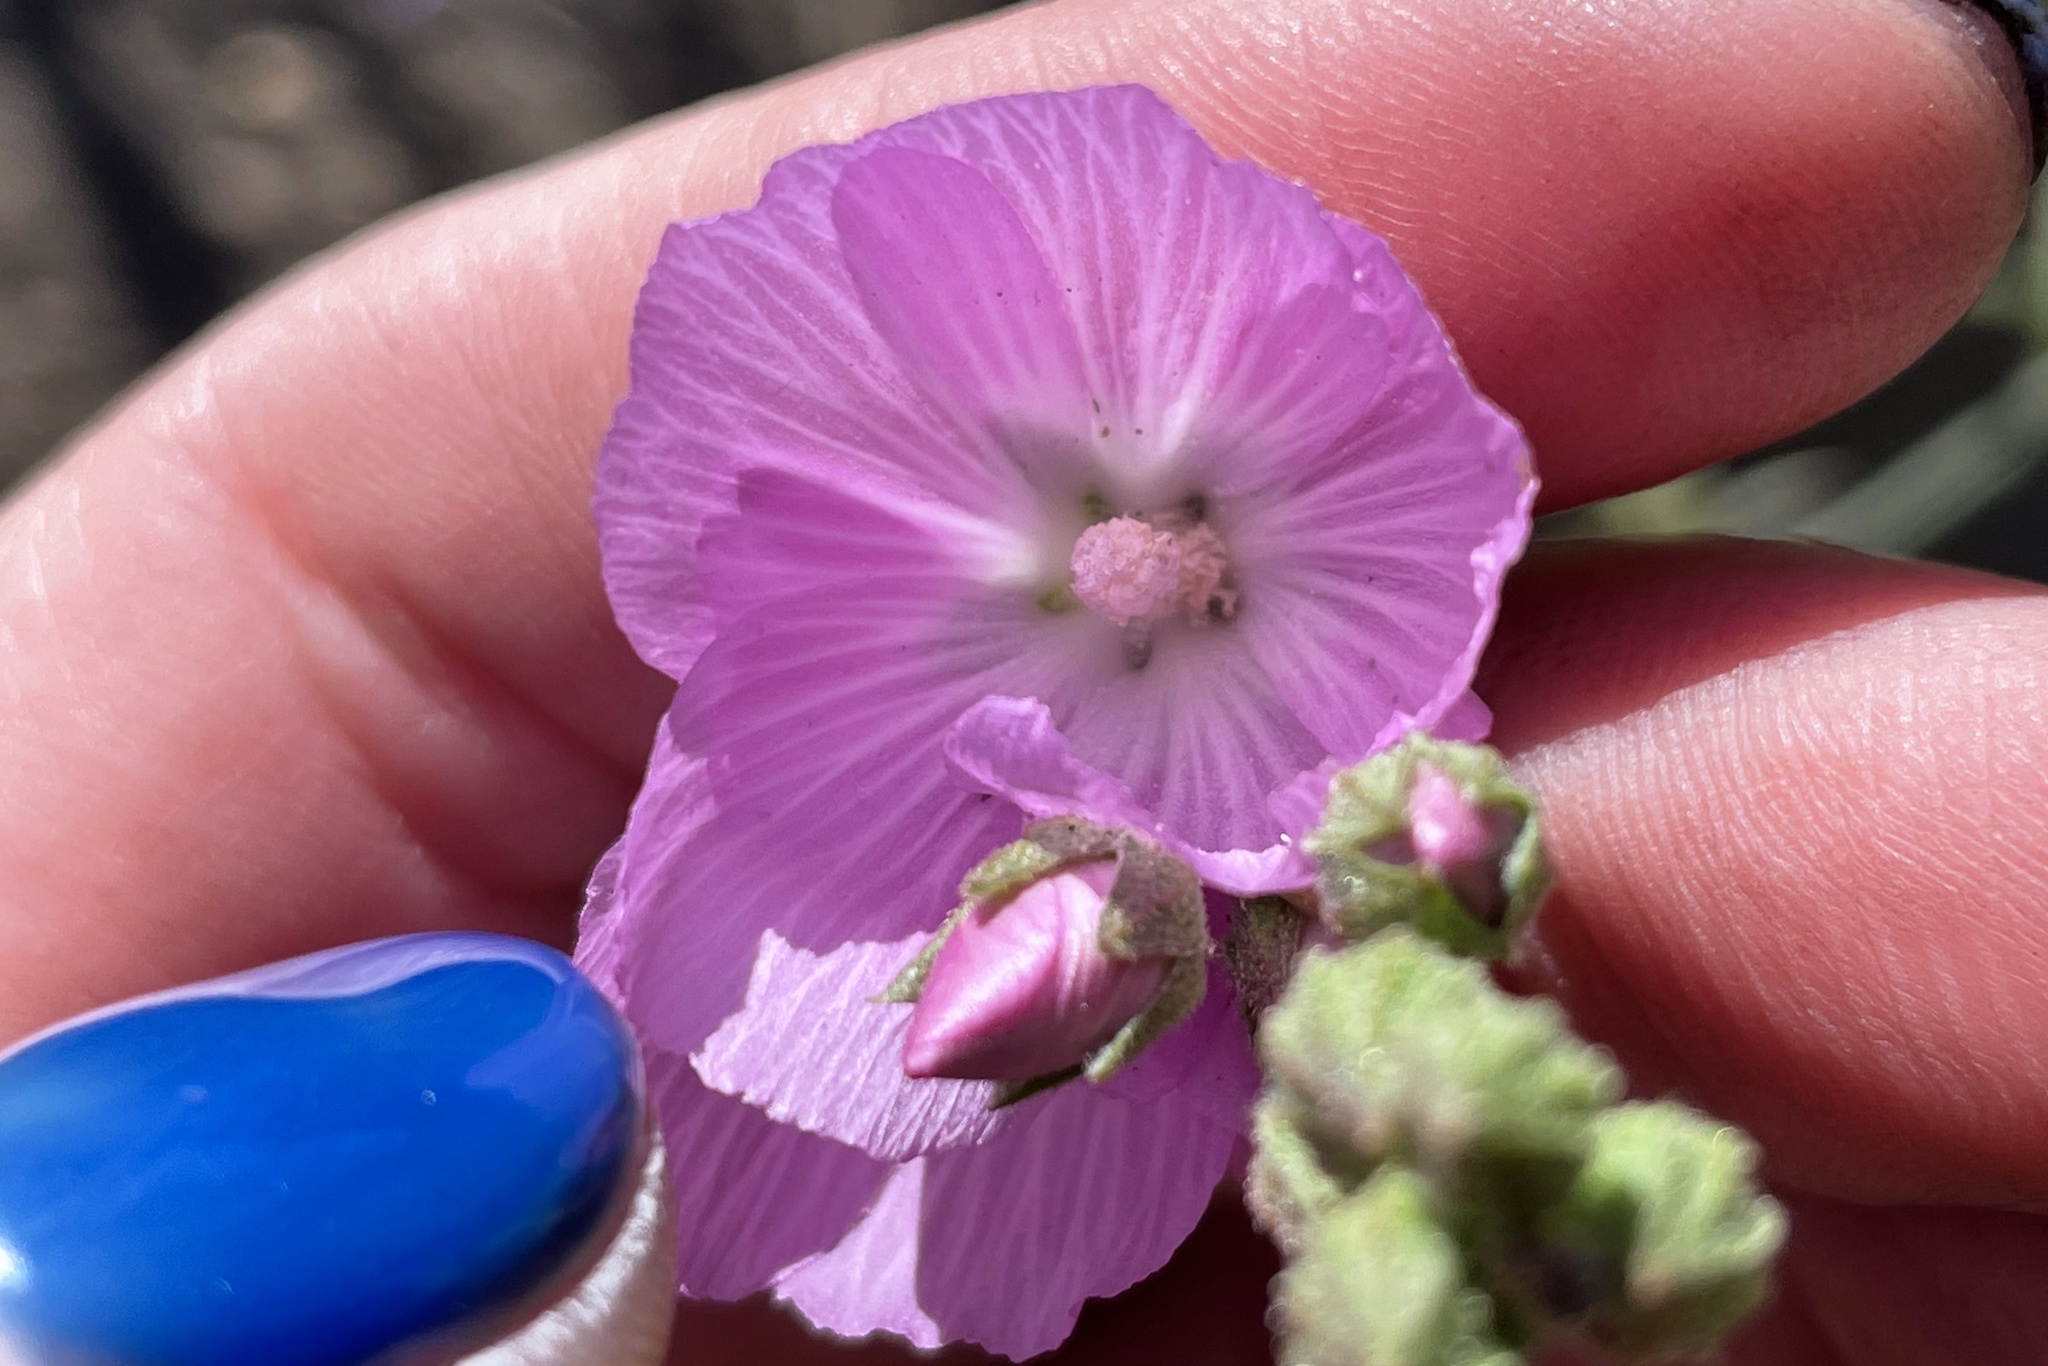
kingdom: Plantae
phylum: Tracheophyta
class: Magnoliopsida
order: Malvales
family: Malvaceae
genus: Sidalcea
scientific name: Sidalcea sparsifolia
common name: Southern checkerbloom
